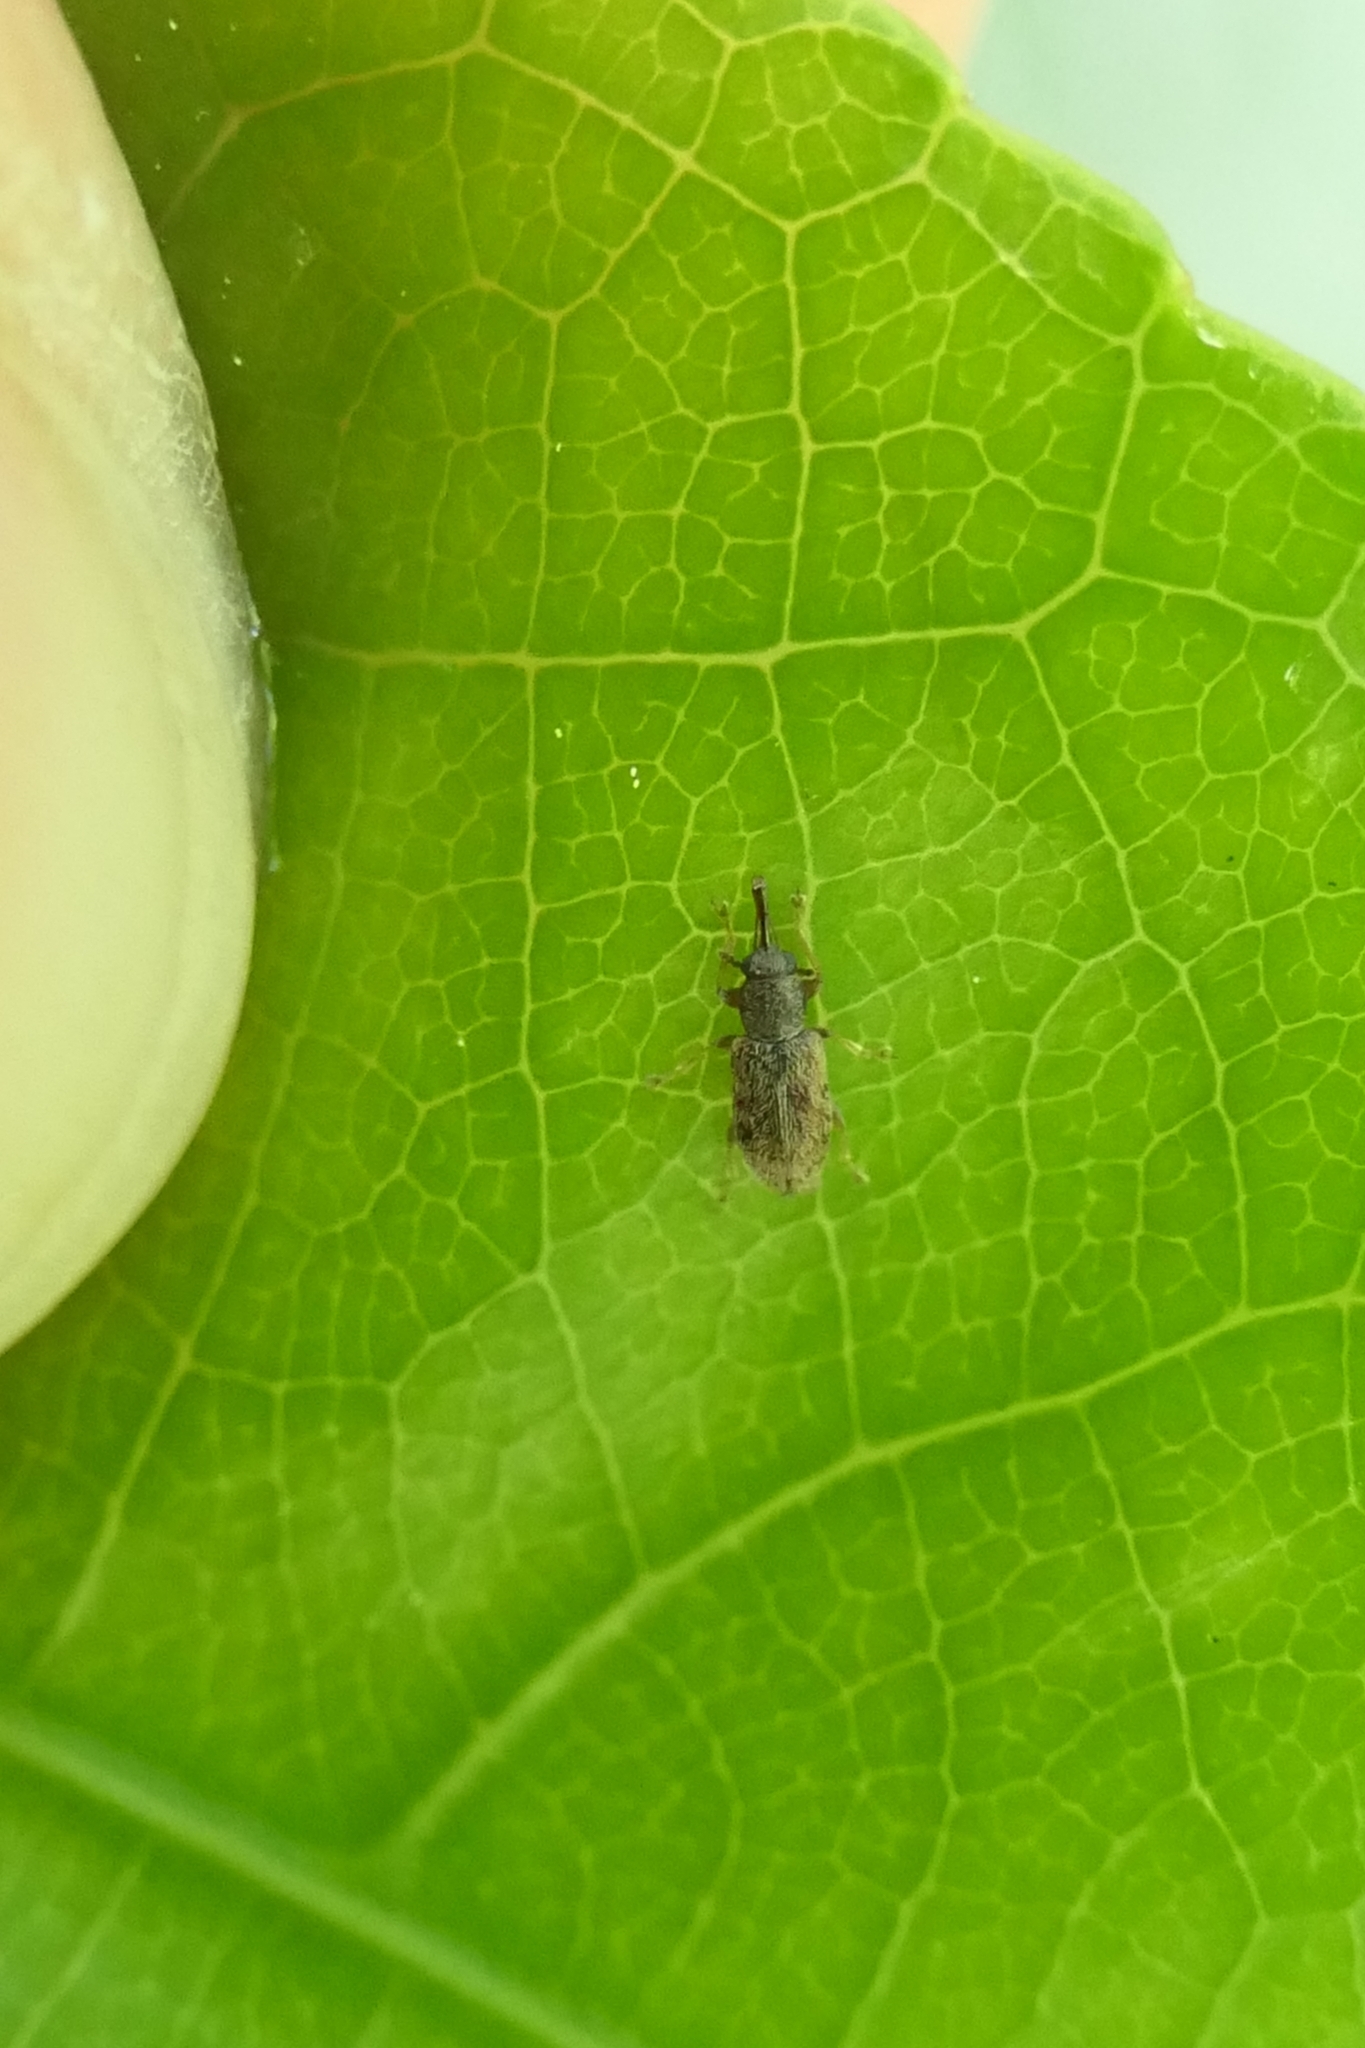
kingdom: Animalia
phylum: Arthropoda
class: Insecta
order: Coleoptera
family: Nemonychidae
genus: Rhinorhynchus
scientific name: Rhinorhynchus rufulus
